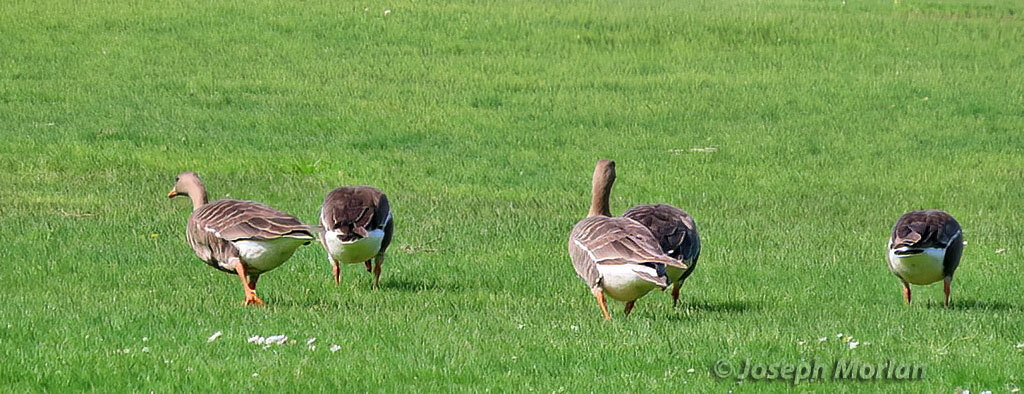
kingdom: Animalia
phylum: Chordata
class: Aves
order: Anseriformes
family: Anatidae
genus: Anser
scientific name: Anser albifrons
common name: Greater white-fronted goose
